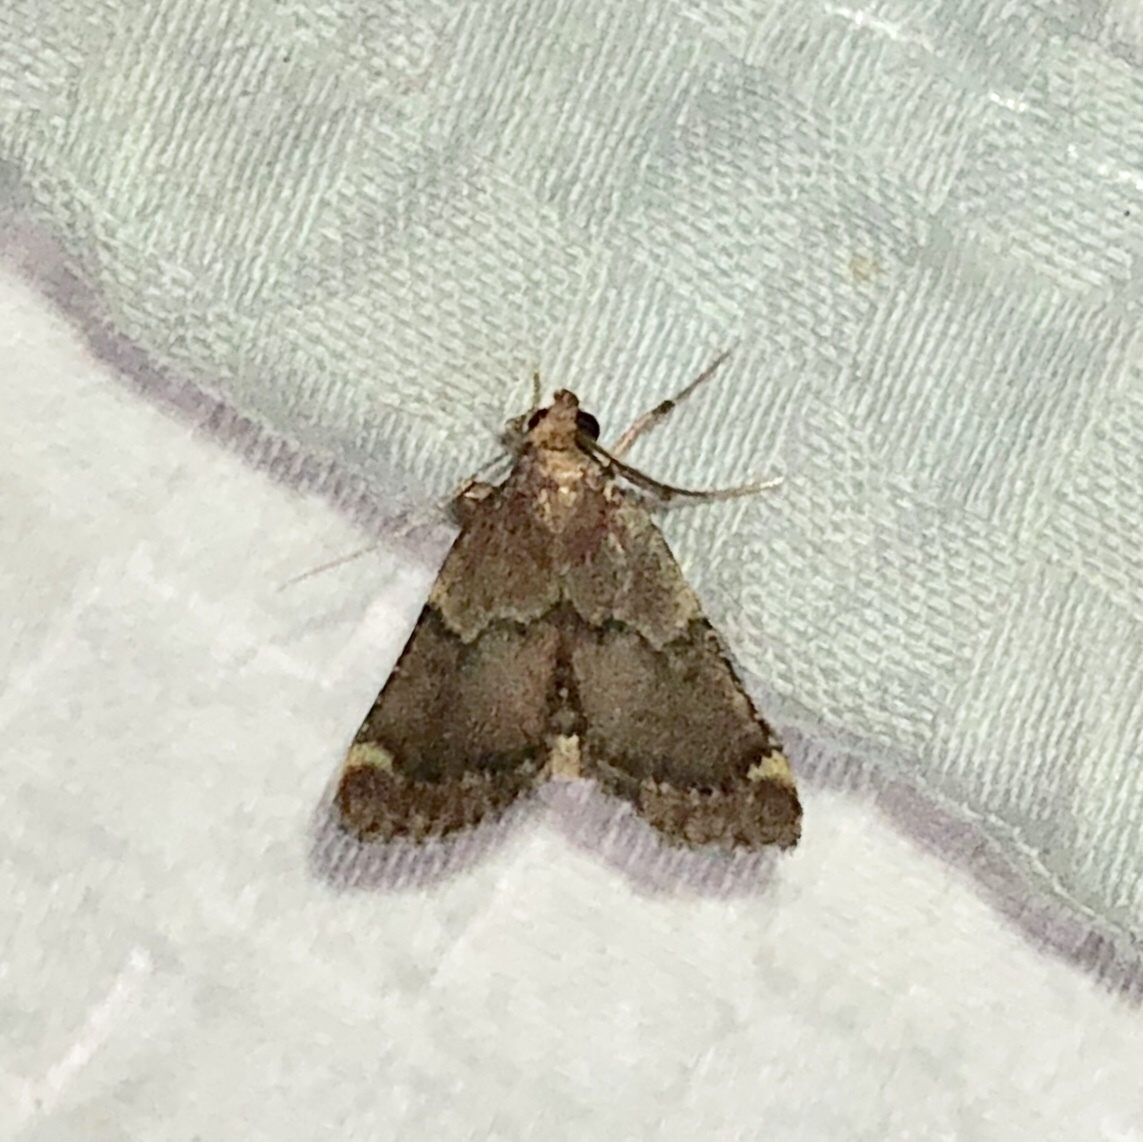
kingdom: Animalia
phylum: Arthropoda
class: Insecta
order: Lepidoptera
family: Pyralidae
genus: Hypsopygia
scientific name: Hypsopygia intermedialis
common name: Red-shawled moth
